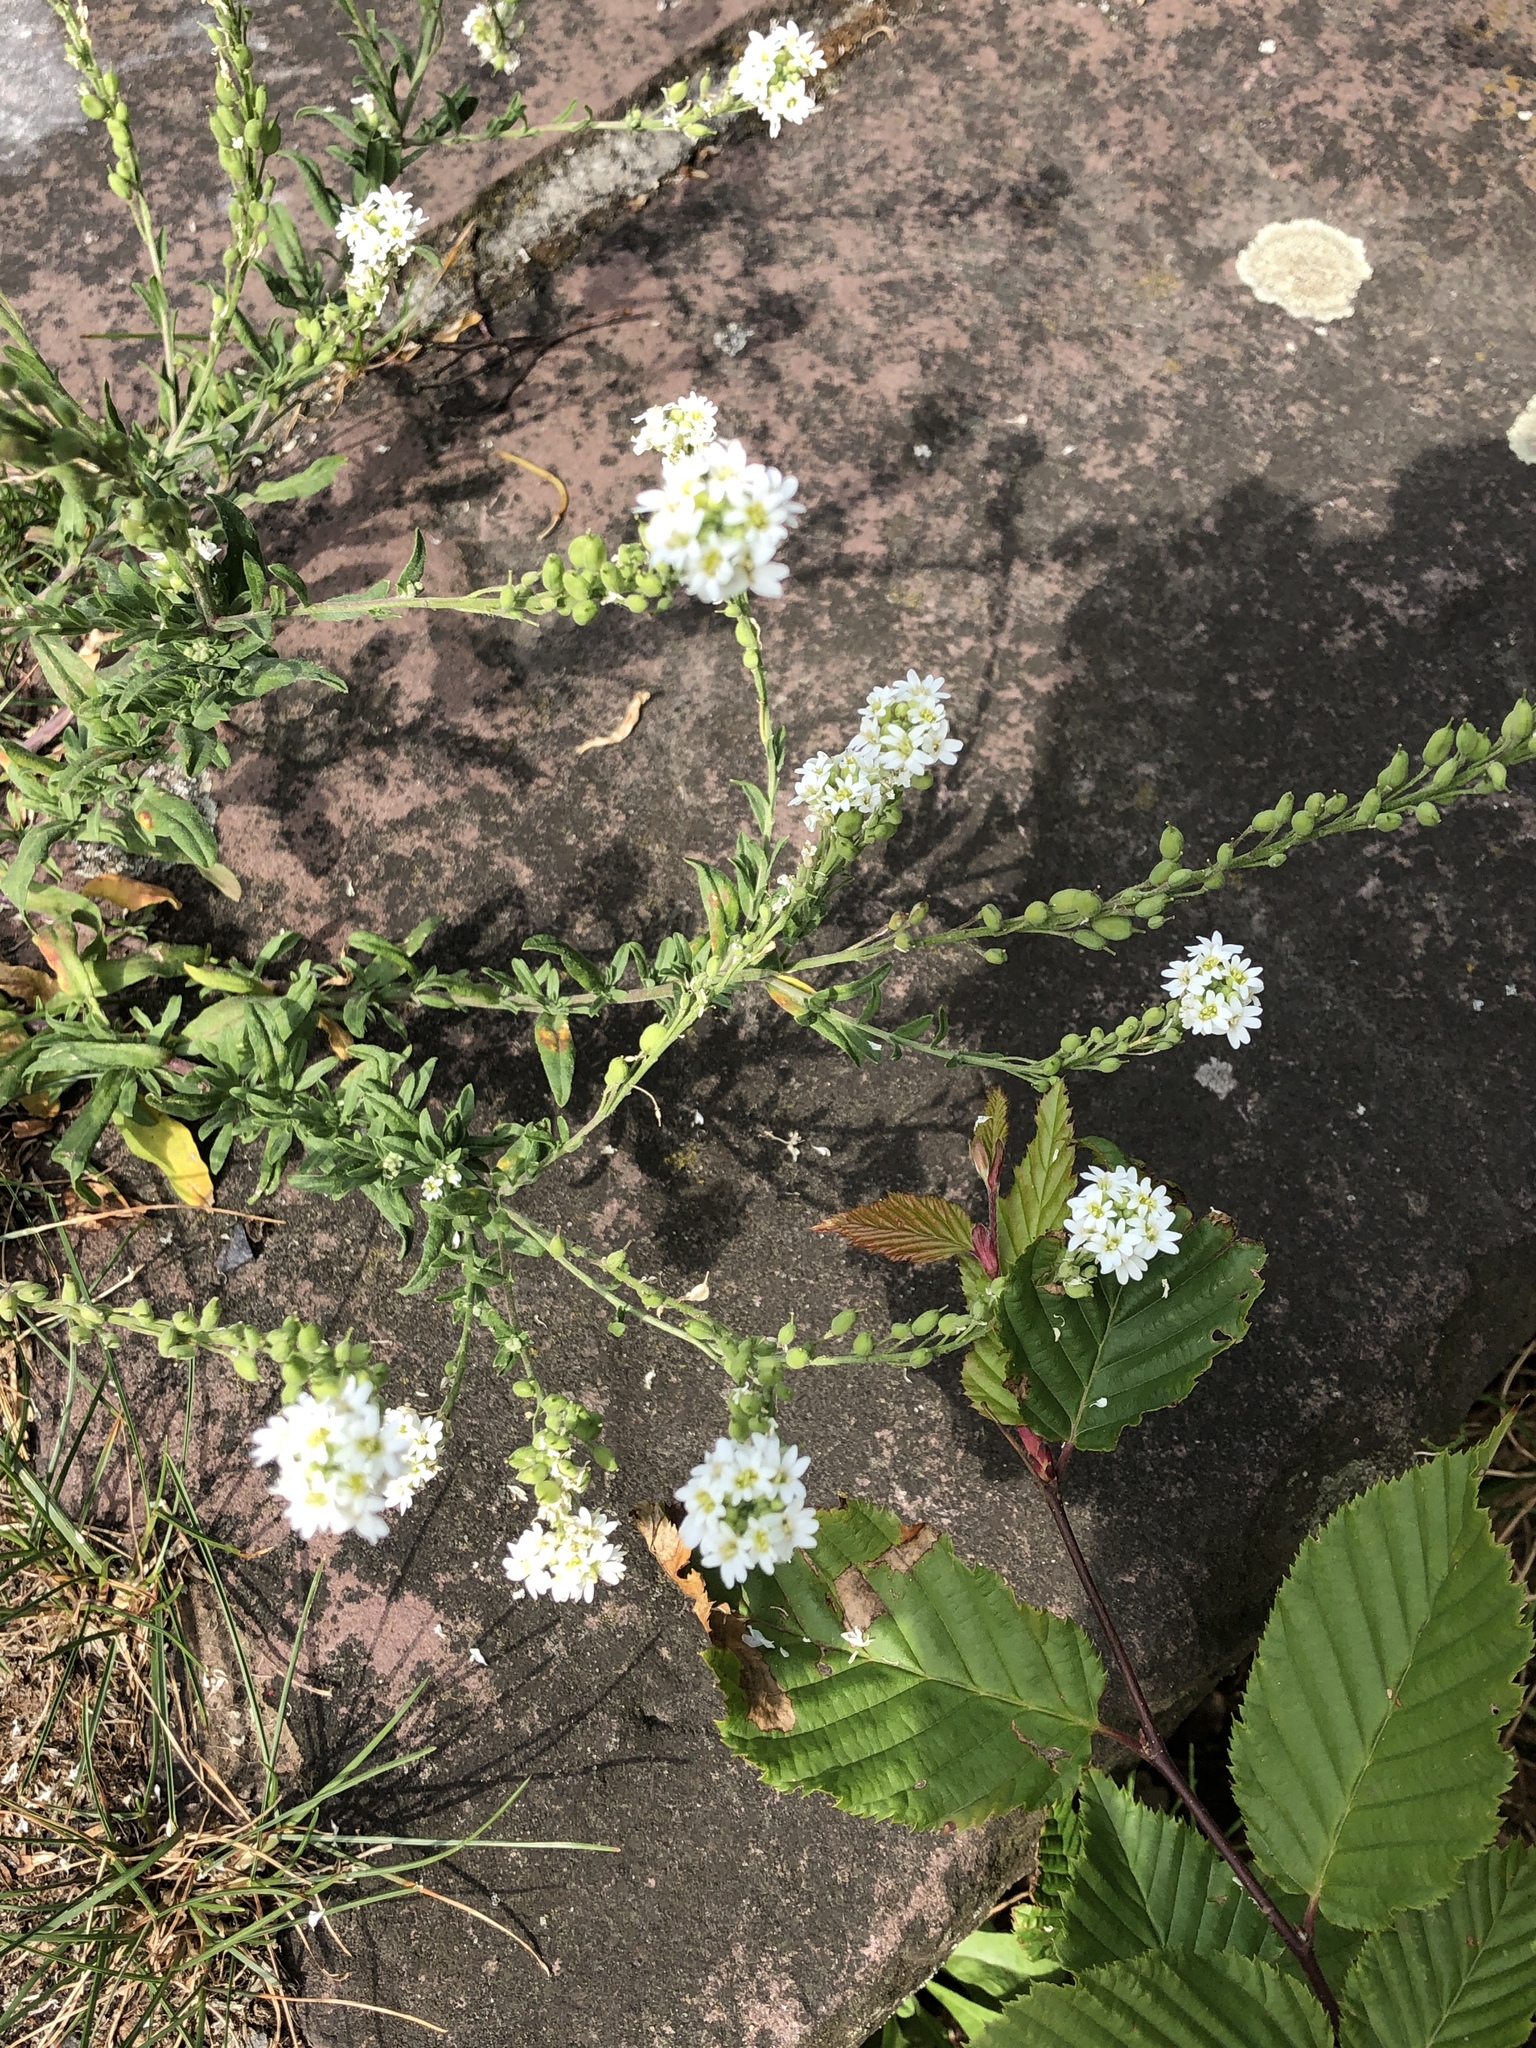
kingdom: Plantae
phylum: Tracheophyta
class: Magnoliopsida
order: Brassicales
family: Brassicaceae
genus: Berteroa
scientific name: Berteroa incana
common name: Hoary alison
